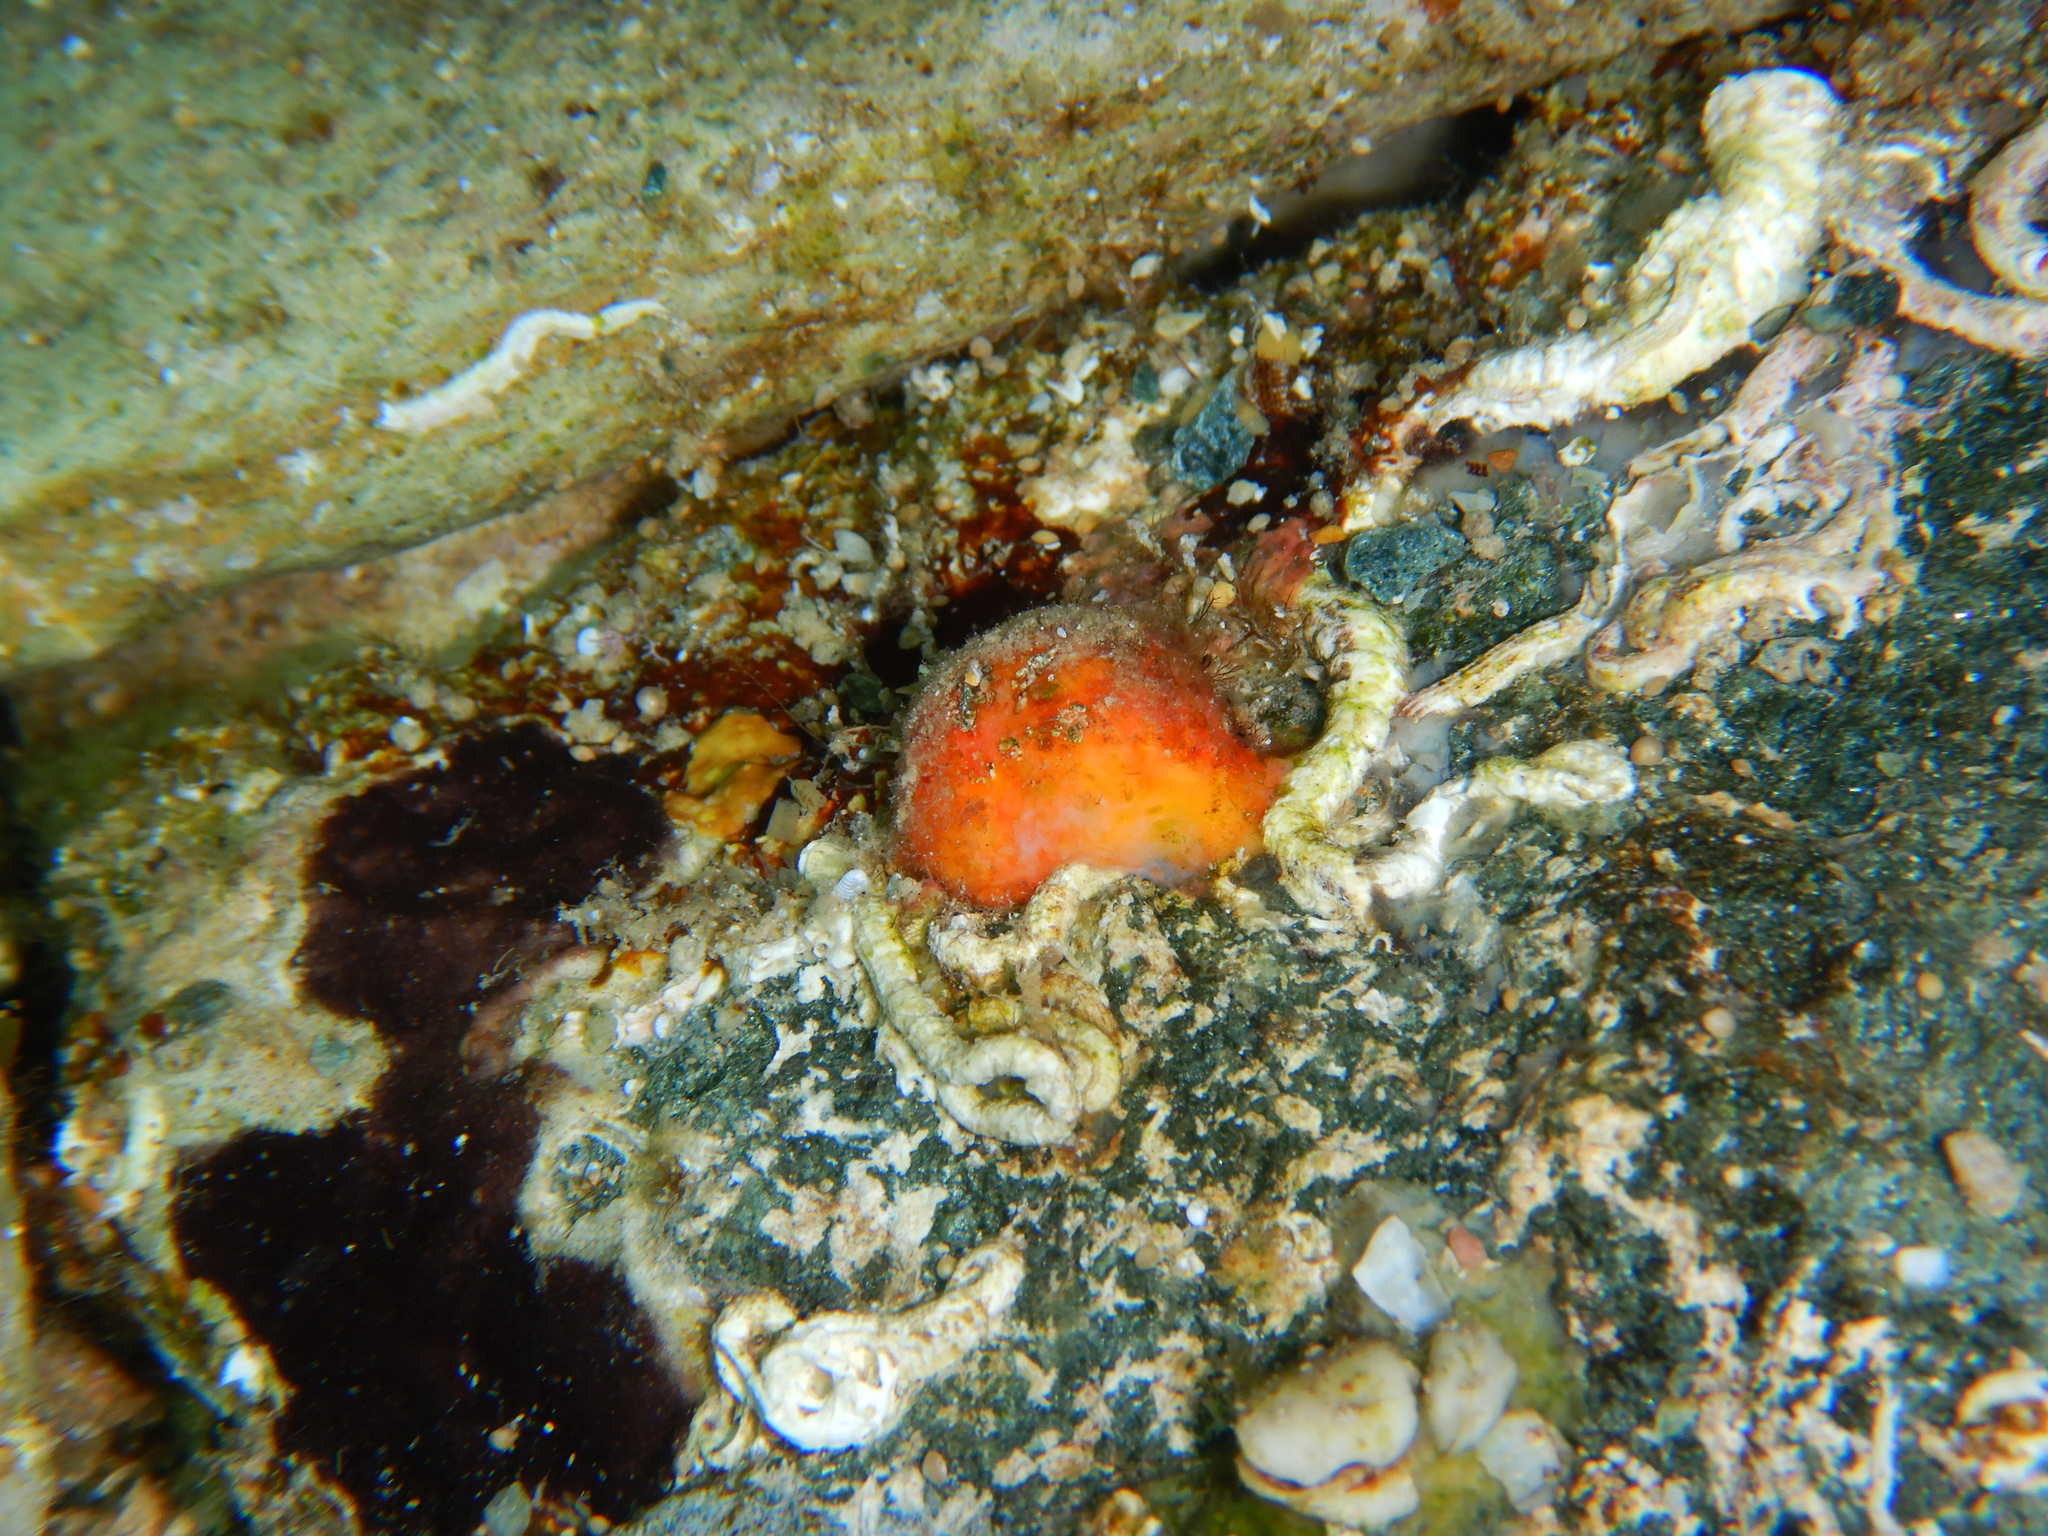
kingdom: Animalia
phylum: Porifera
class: Demospongiae
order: Tethyida
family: Tethyidae
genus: Tethya
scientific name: Tethya aurantium
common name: Golf ball sponge
